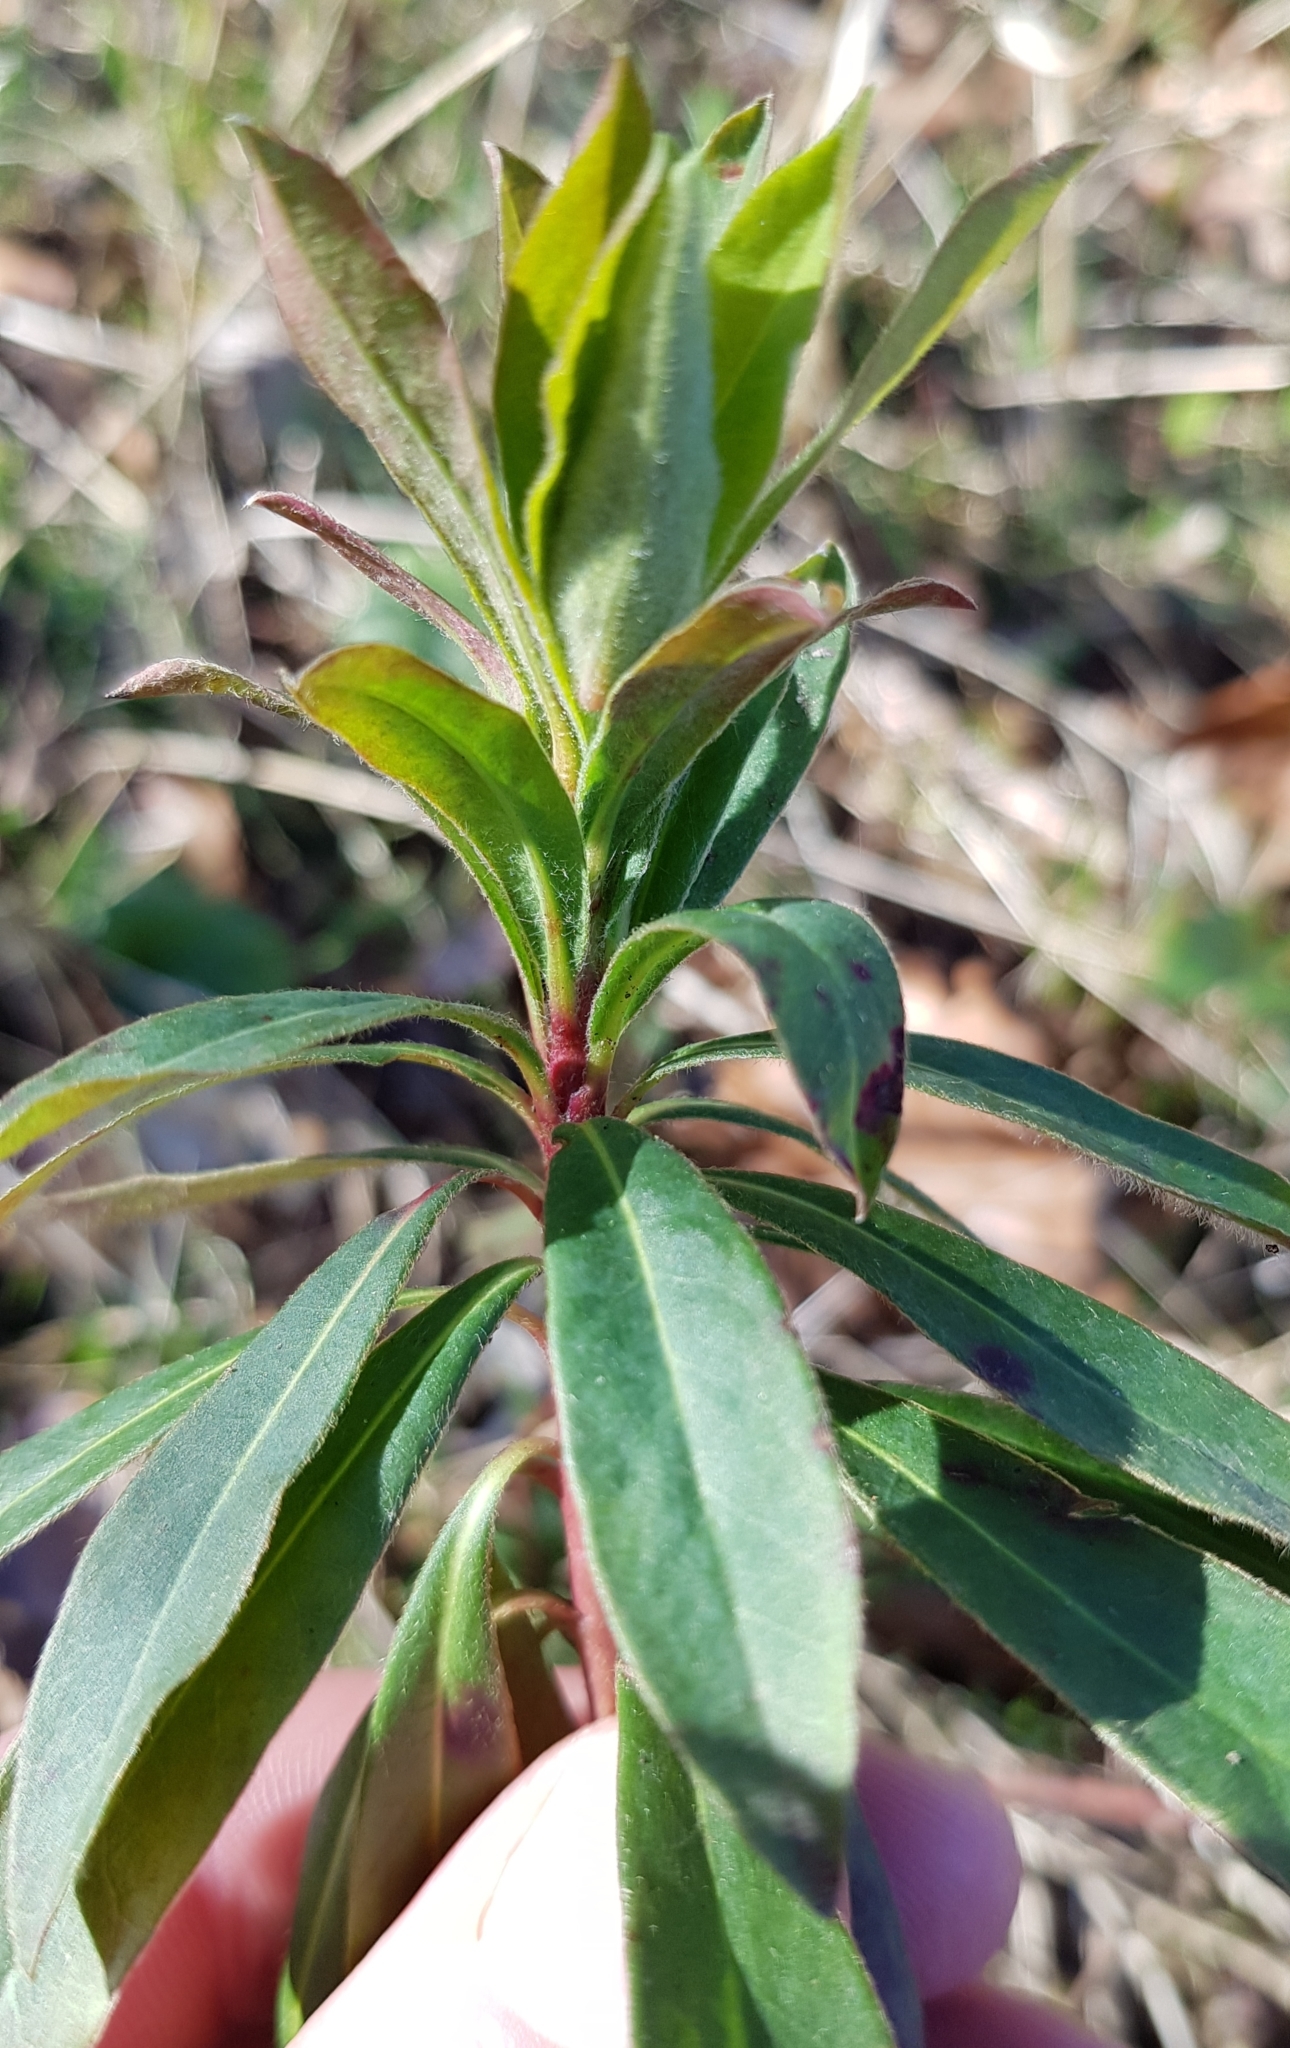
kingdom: Plantae
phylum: Tracheophyta
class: Magnoliopsida
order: Malpighiales
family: Euphorbiaceae
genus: Euphorbia
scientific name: Euphorbia amygdaloides
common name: Wood spurge
